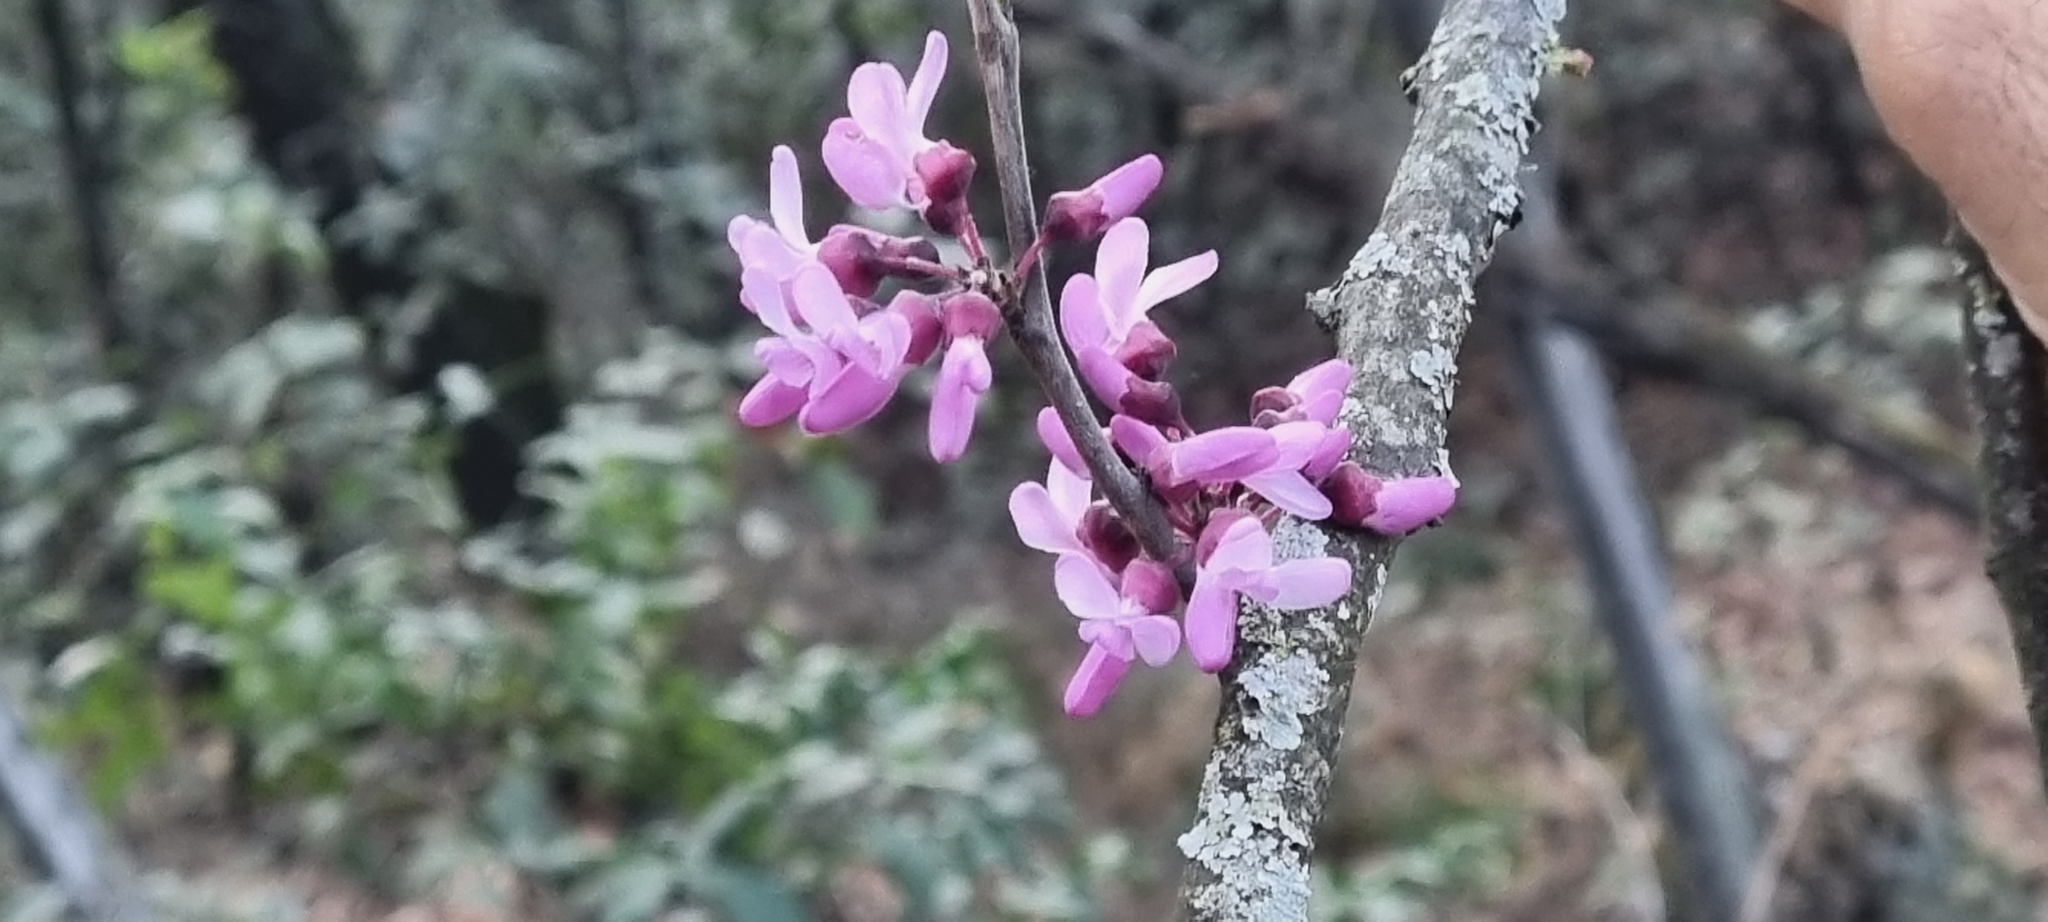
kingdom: Plantae
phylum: Tracheophyta
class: Magnoliopsida
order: Fabales
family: Fabaceae
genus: Cercis
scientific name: Cercis canadensis
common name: Eastern redbud
